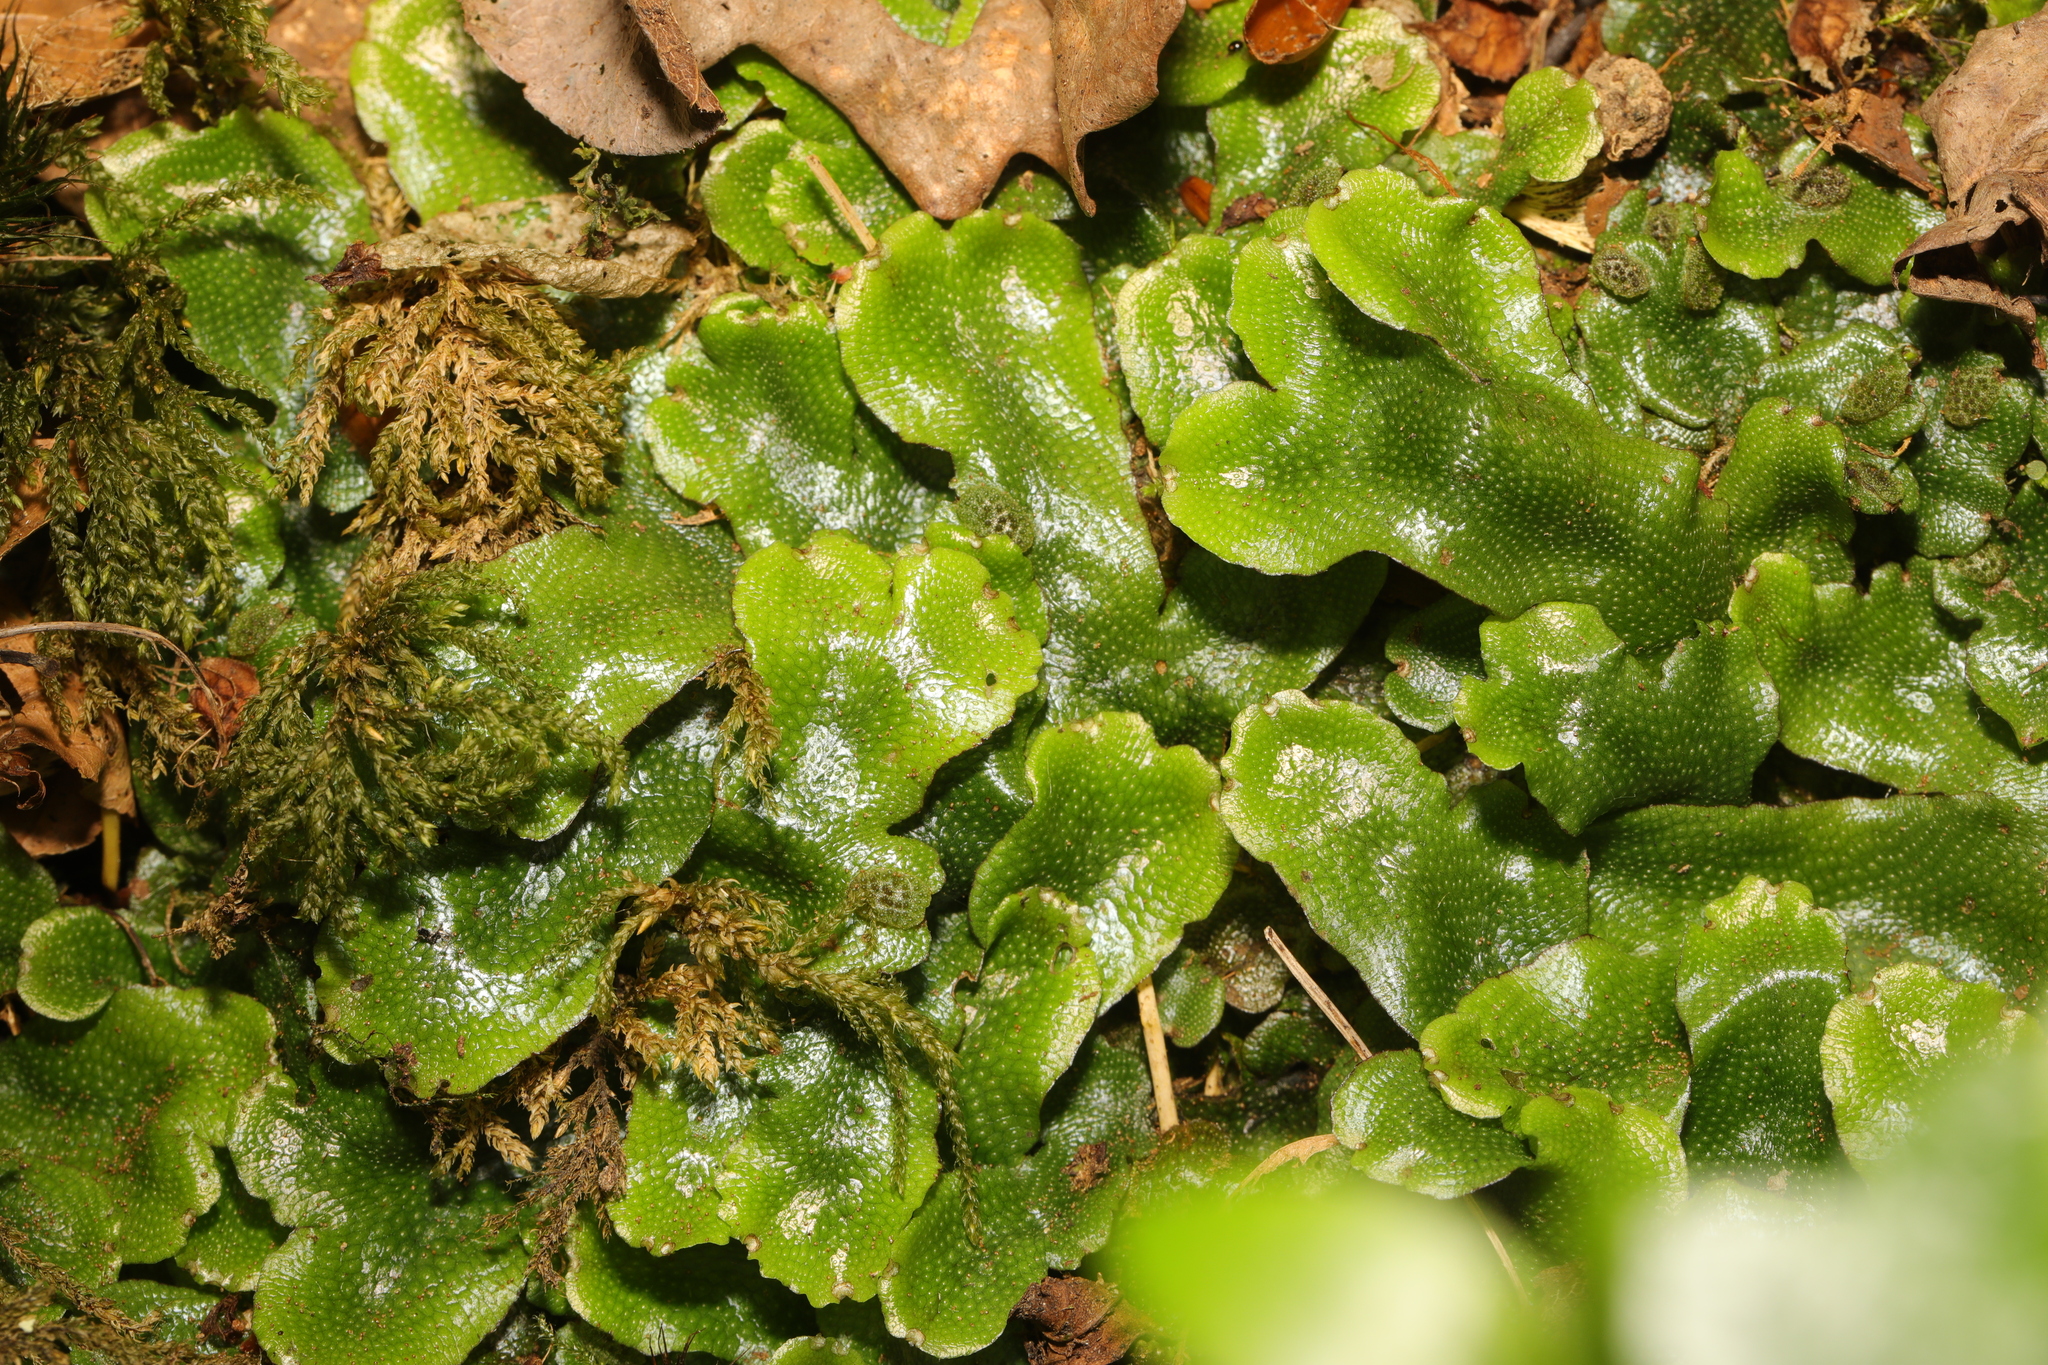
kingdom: Plantae
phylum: Marchantiophyta
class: Marchantiopsida
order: Marchantiales
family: Conocephalaceae
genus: Conocephalum
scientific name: Conocephalum conicum
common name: Great scented liverwort
